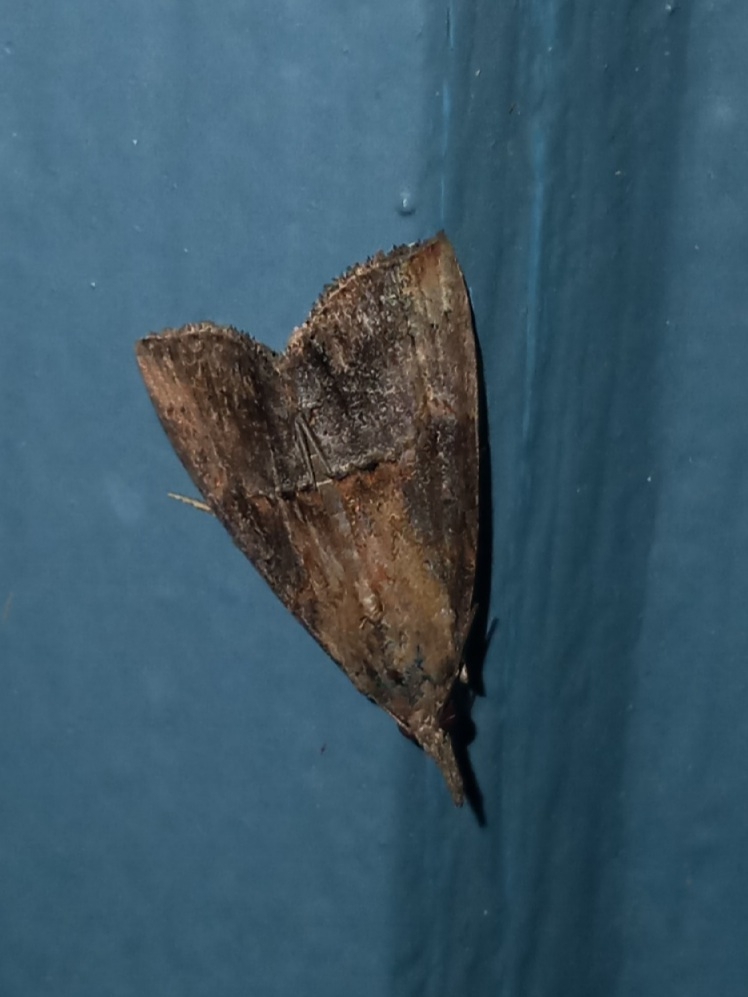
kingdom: Animalia
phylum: Arthropoda
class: Insecta
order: Lepidoptera
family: Erebidae
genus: Hypena
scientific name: Hypena scabra
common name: Green cloverworm
